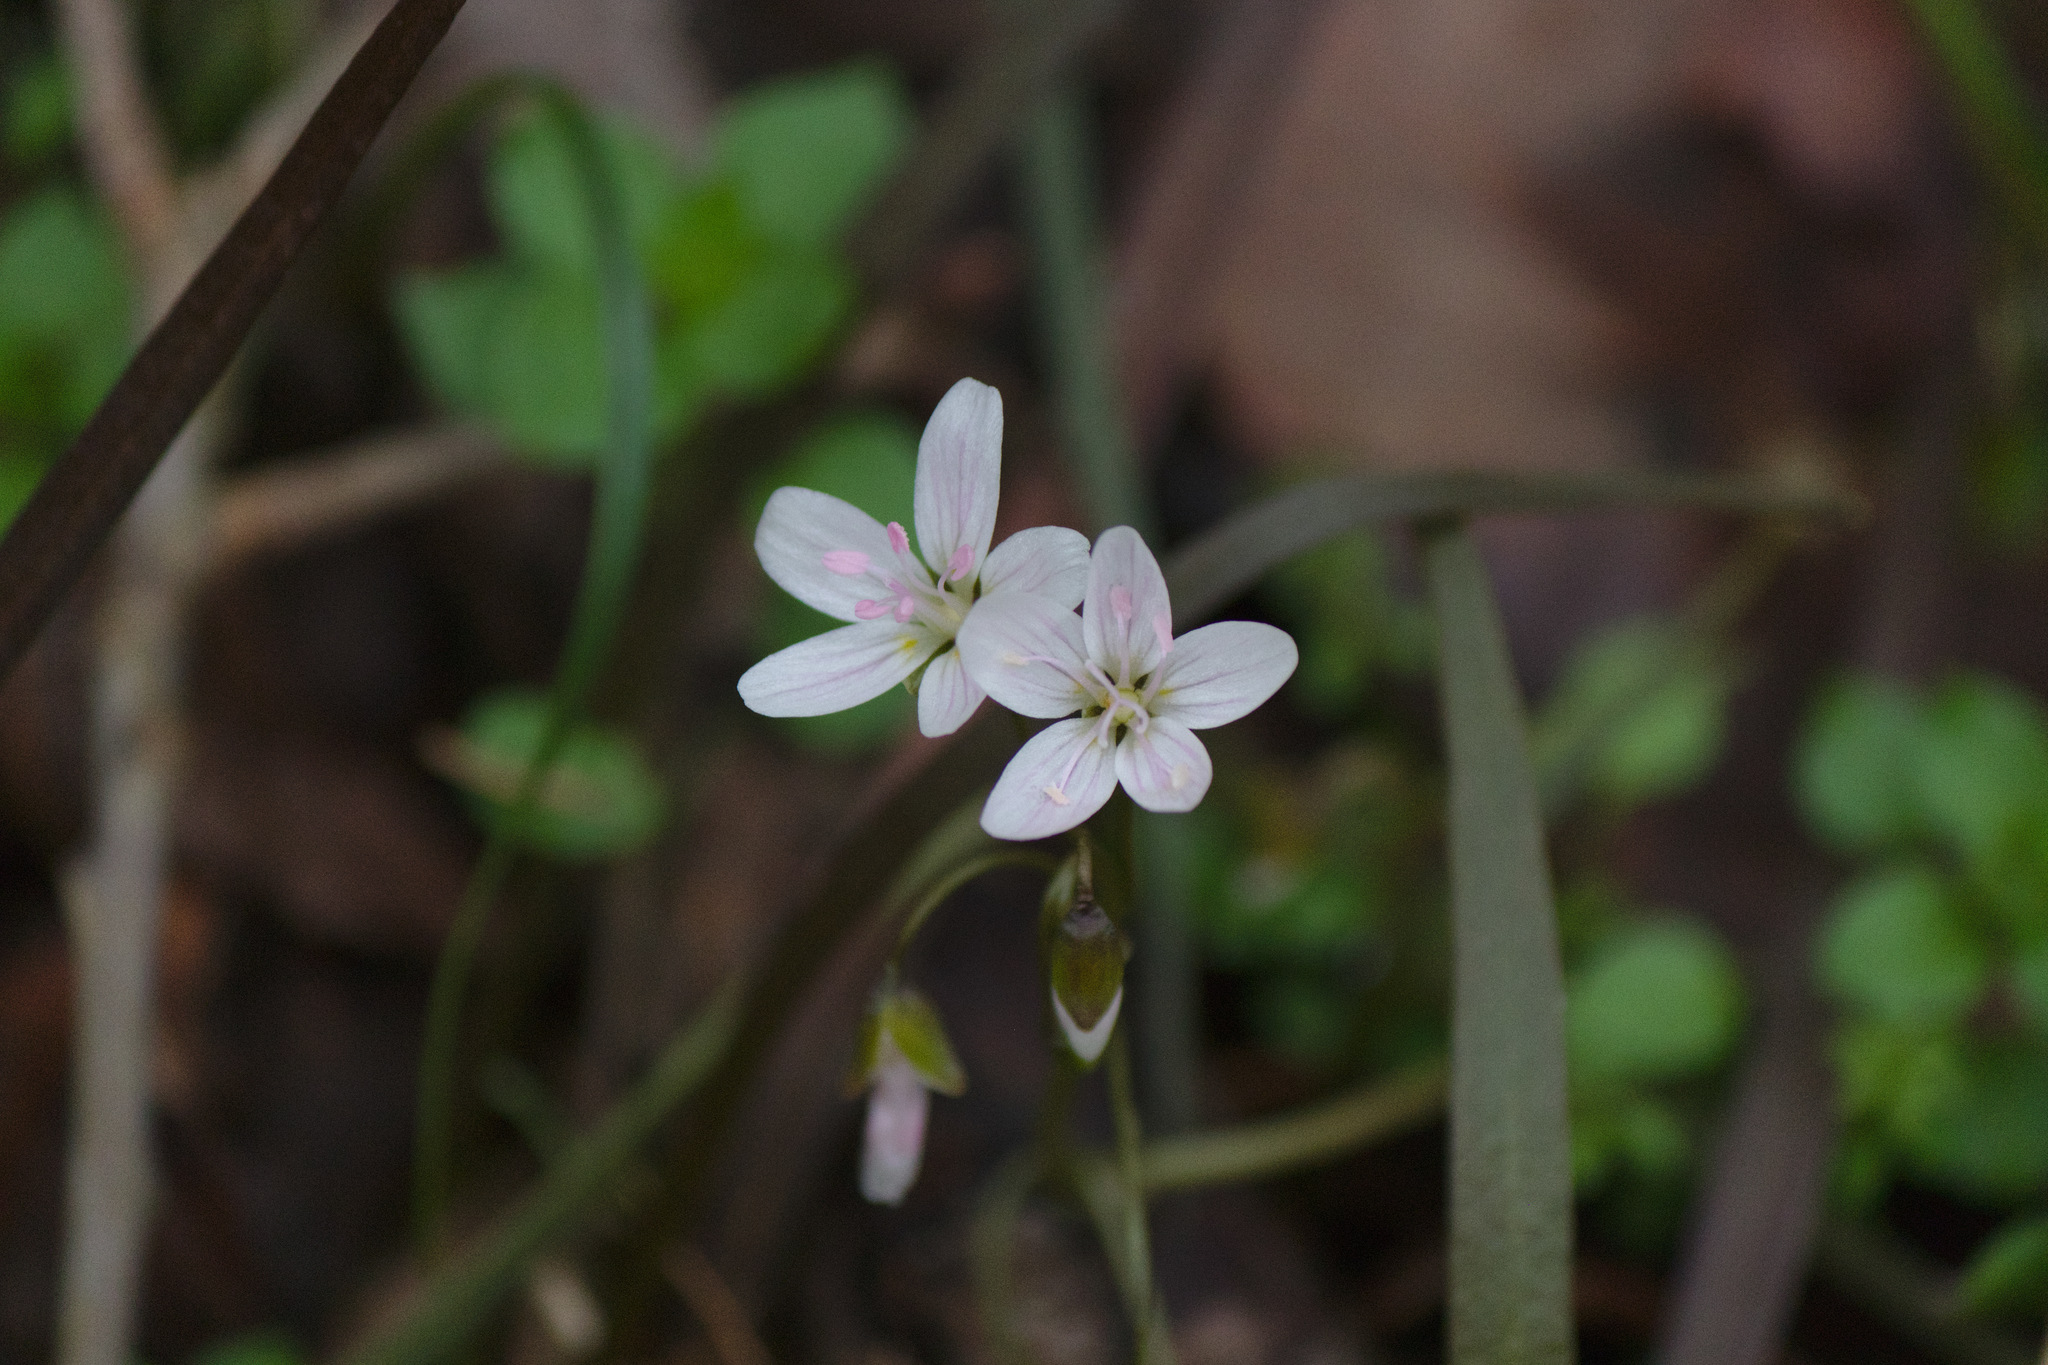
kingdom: Plantae
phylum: Tracheophyta
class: Magnoliopsida
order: Caryophyllales
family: Montiaceae
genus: Claytonia
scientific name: Claytonia virginica
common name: Virginia springbeauty
